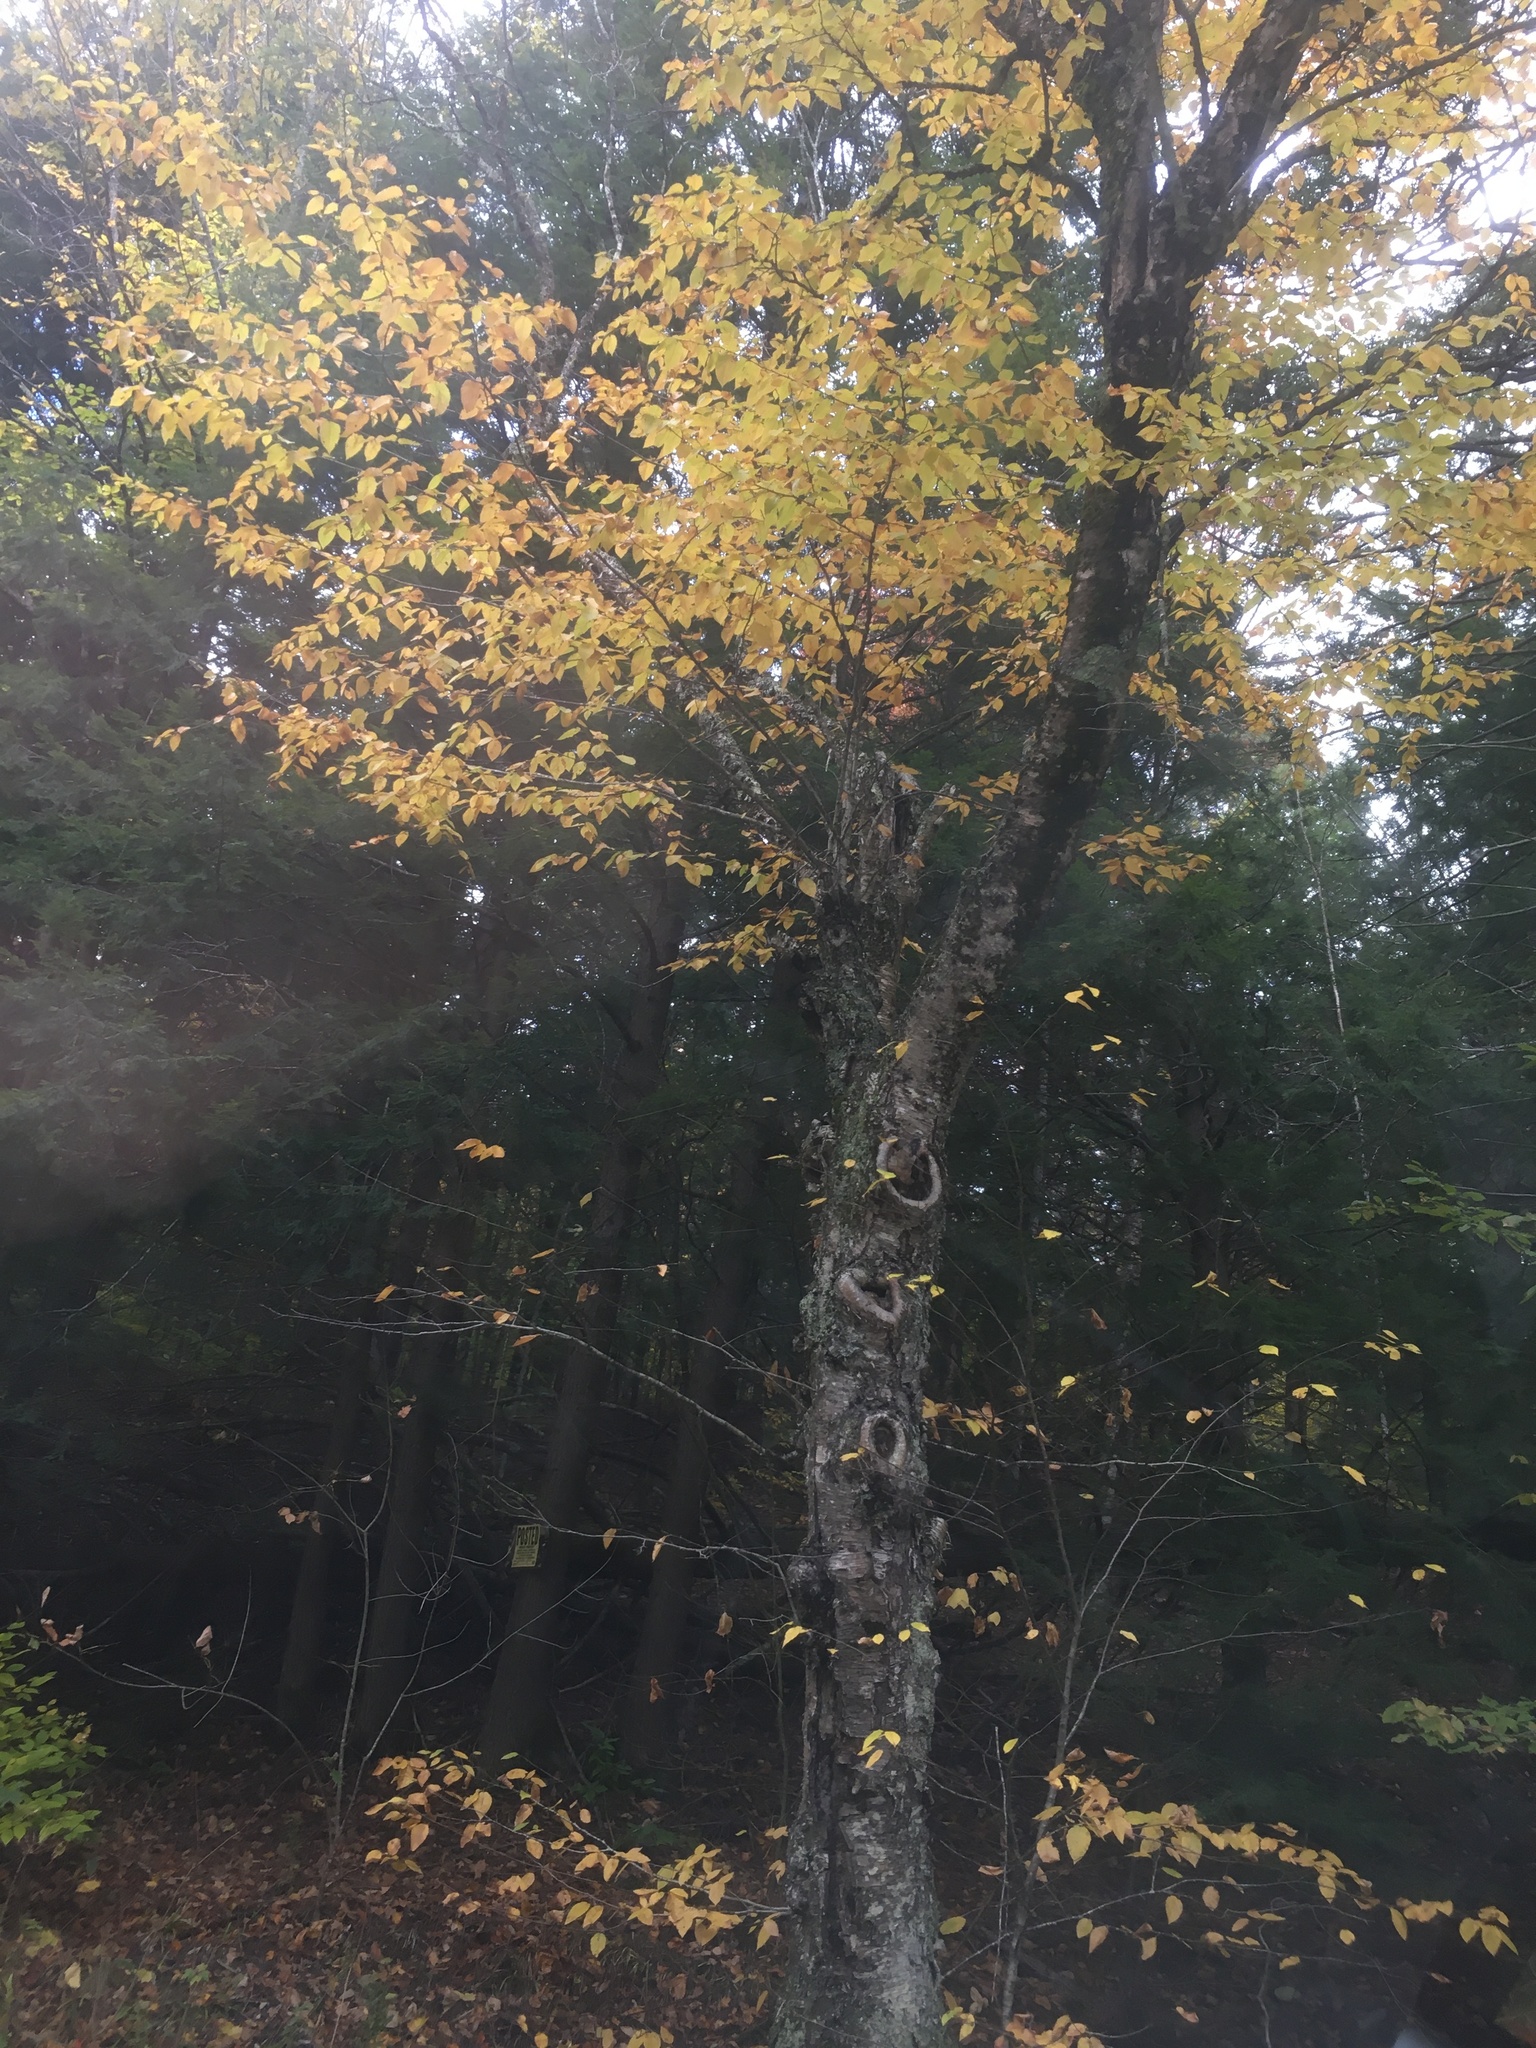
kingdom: Plantae
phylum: Tracheophyta
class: Magnoliopsida
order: Fagales
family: Betulaceae
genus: Betula
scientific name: Betula alleghaniensis
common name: Yellow birch
